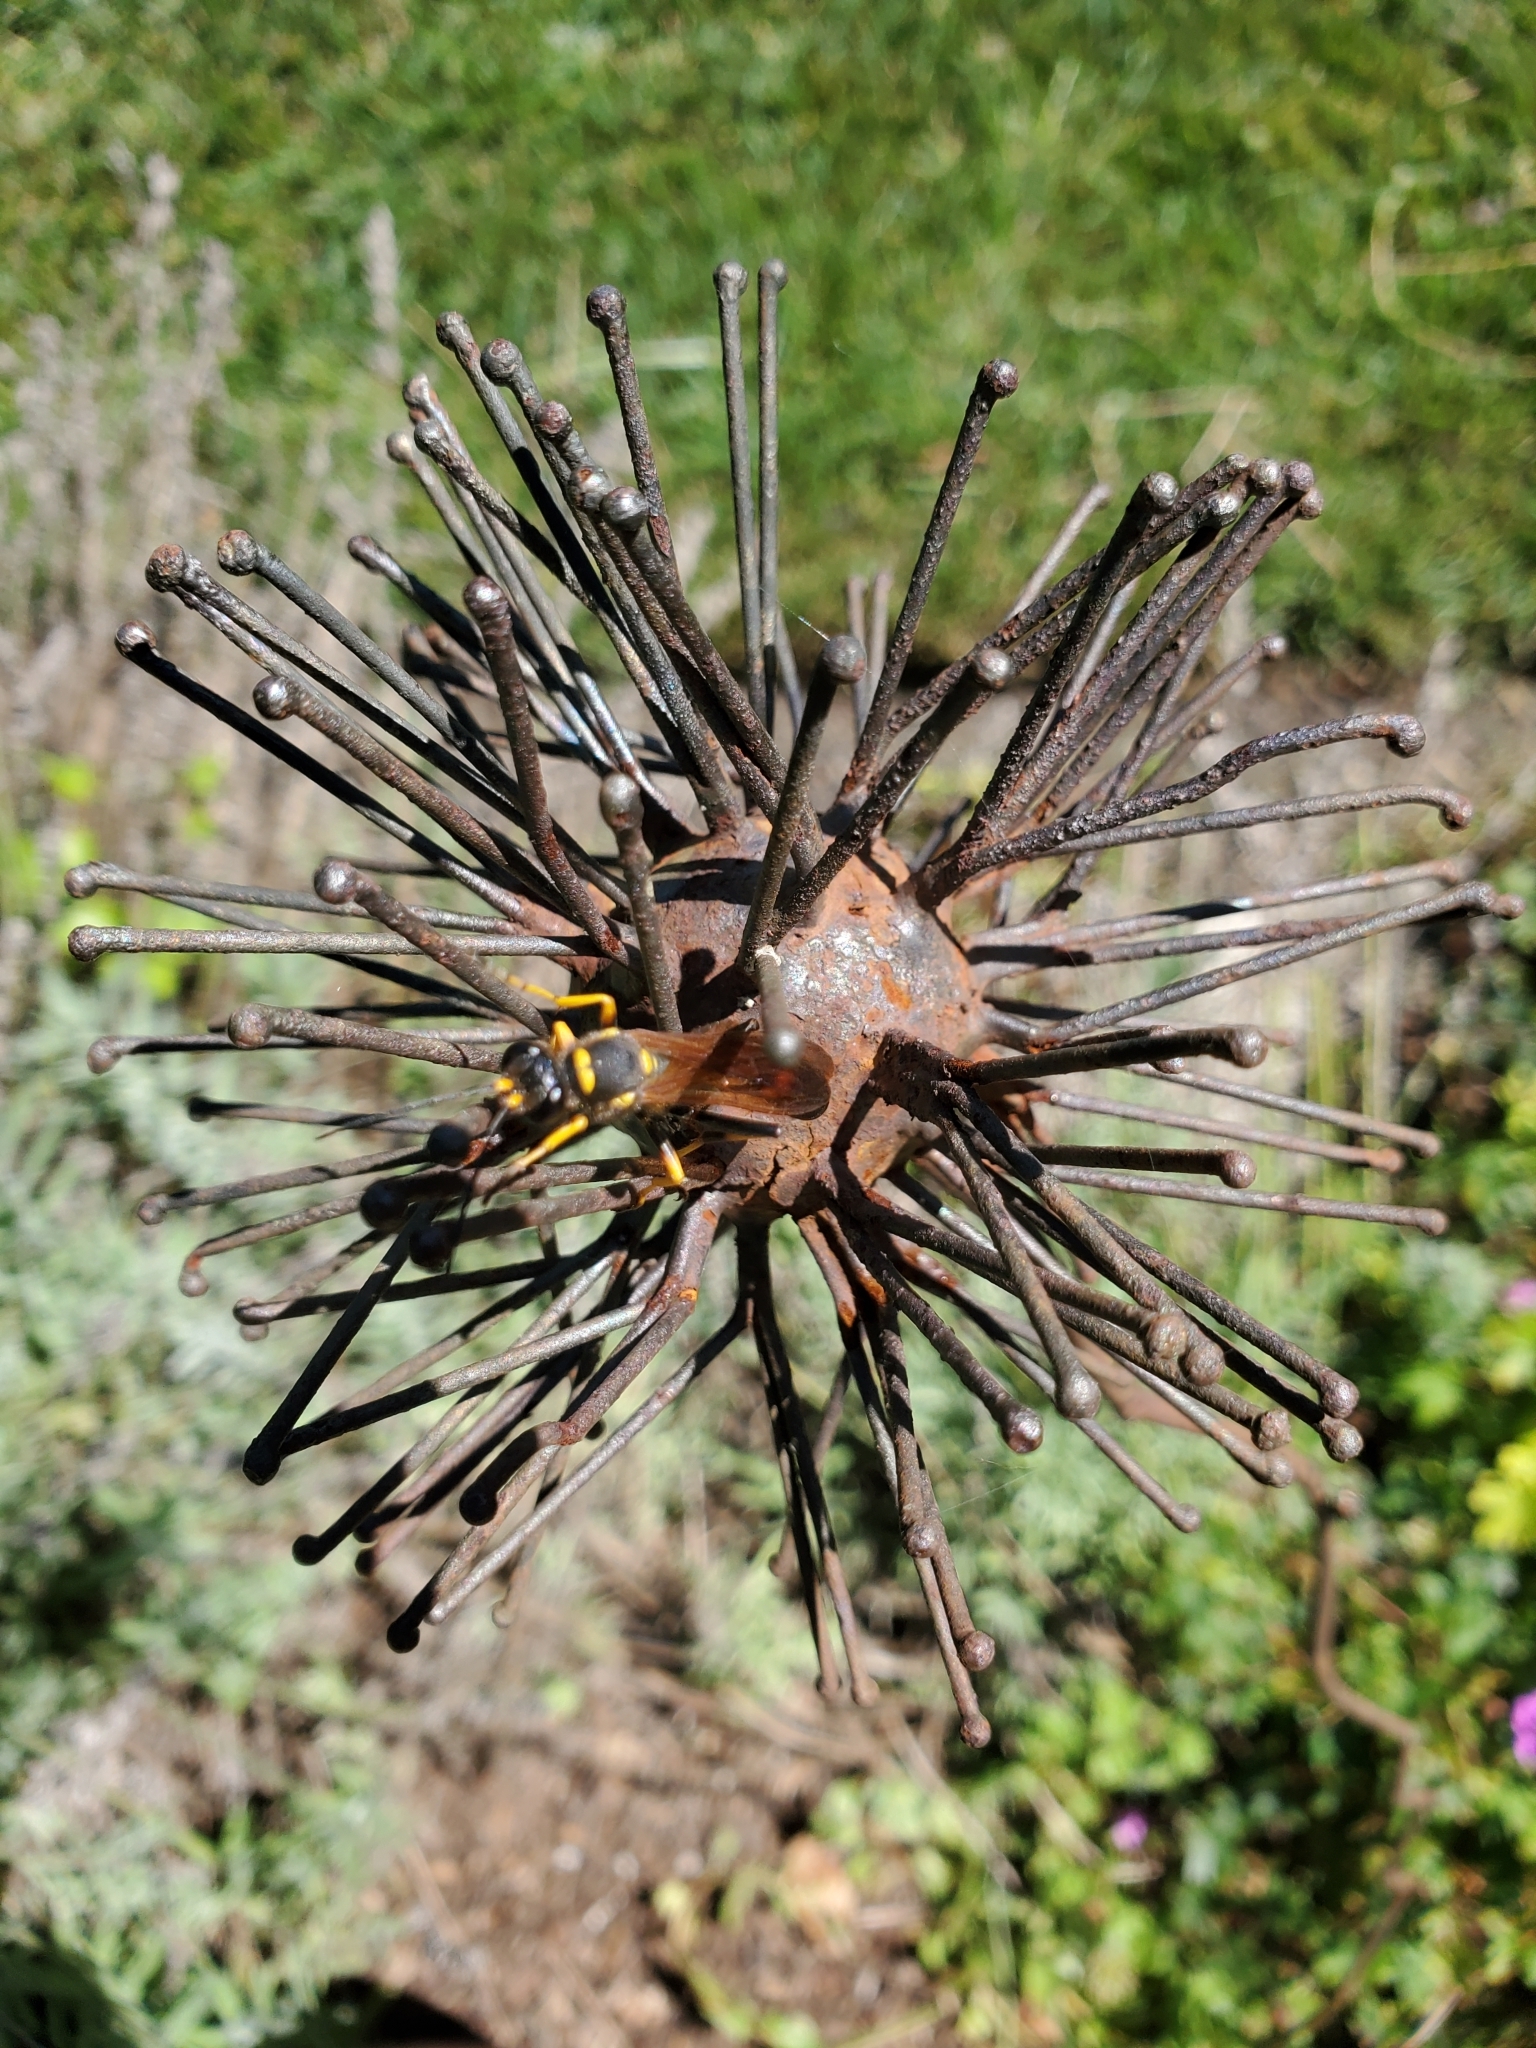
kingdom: Animalia
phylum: Arthropoda
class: Insecta
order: Hymenoptera
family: Sphecidae
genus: Sceliphron
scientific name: Sceliphron caementarium
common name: Mud dauber
